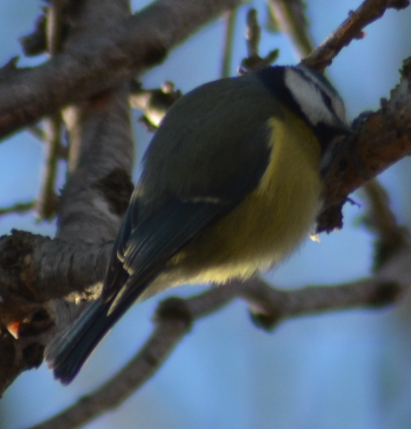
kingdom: Animalia
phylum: Chordata
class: Aves
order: Passeriformes
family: Paridae
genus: Cyanistes
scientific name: Cyanistes caeruleus
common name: Eurasian blue tit
